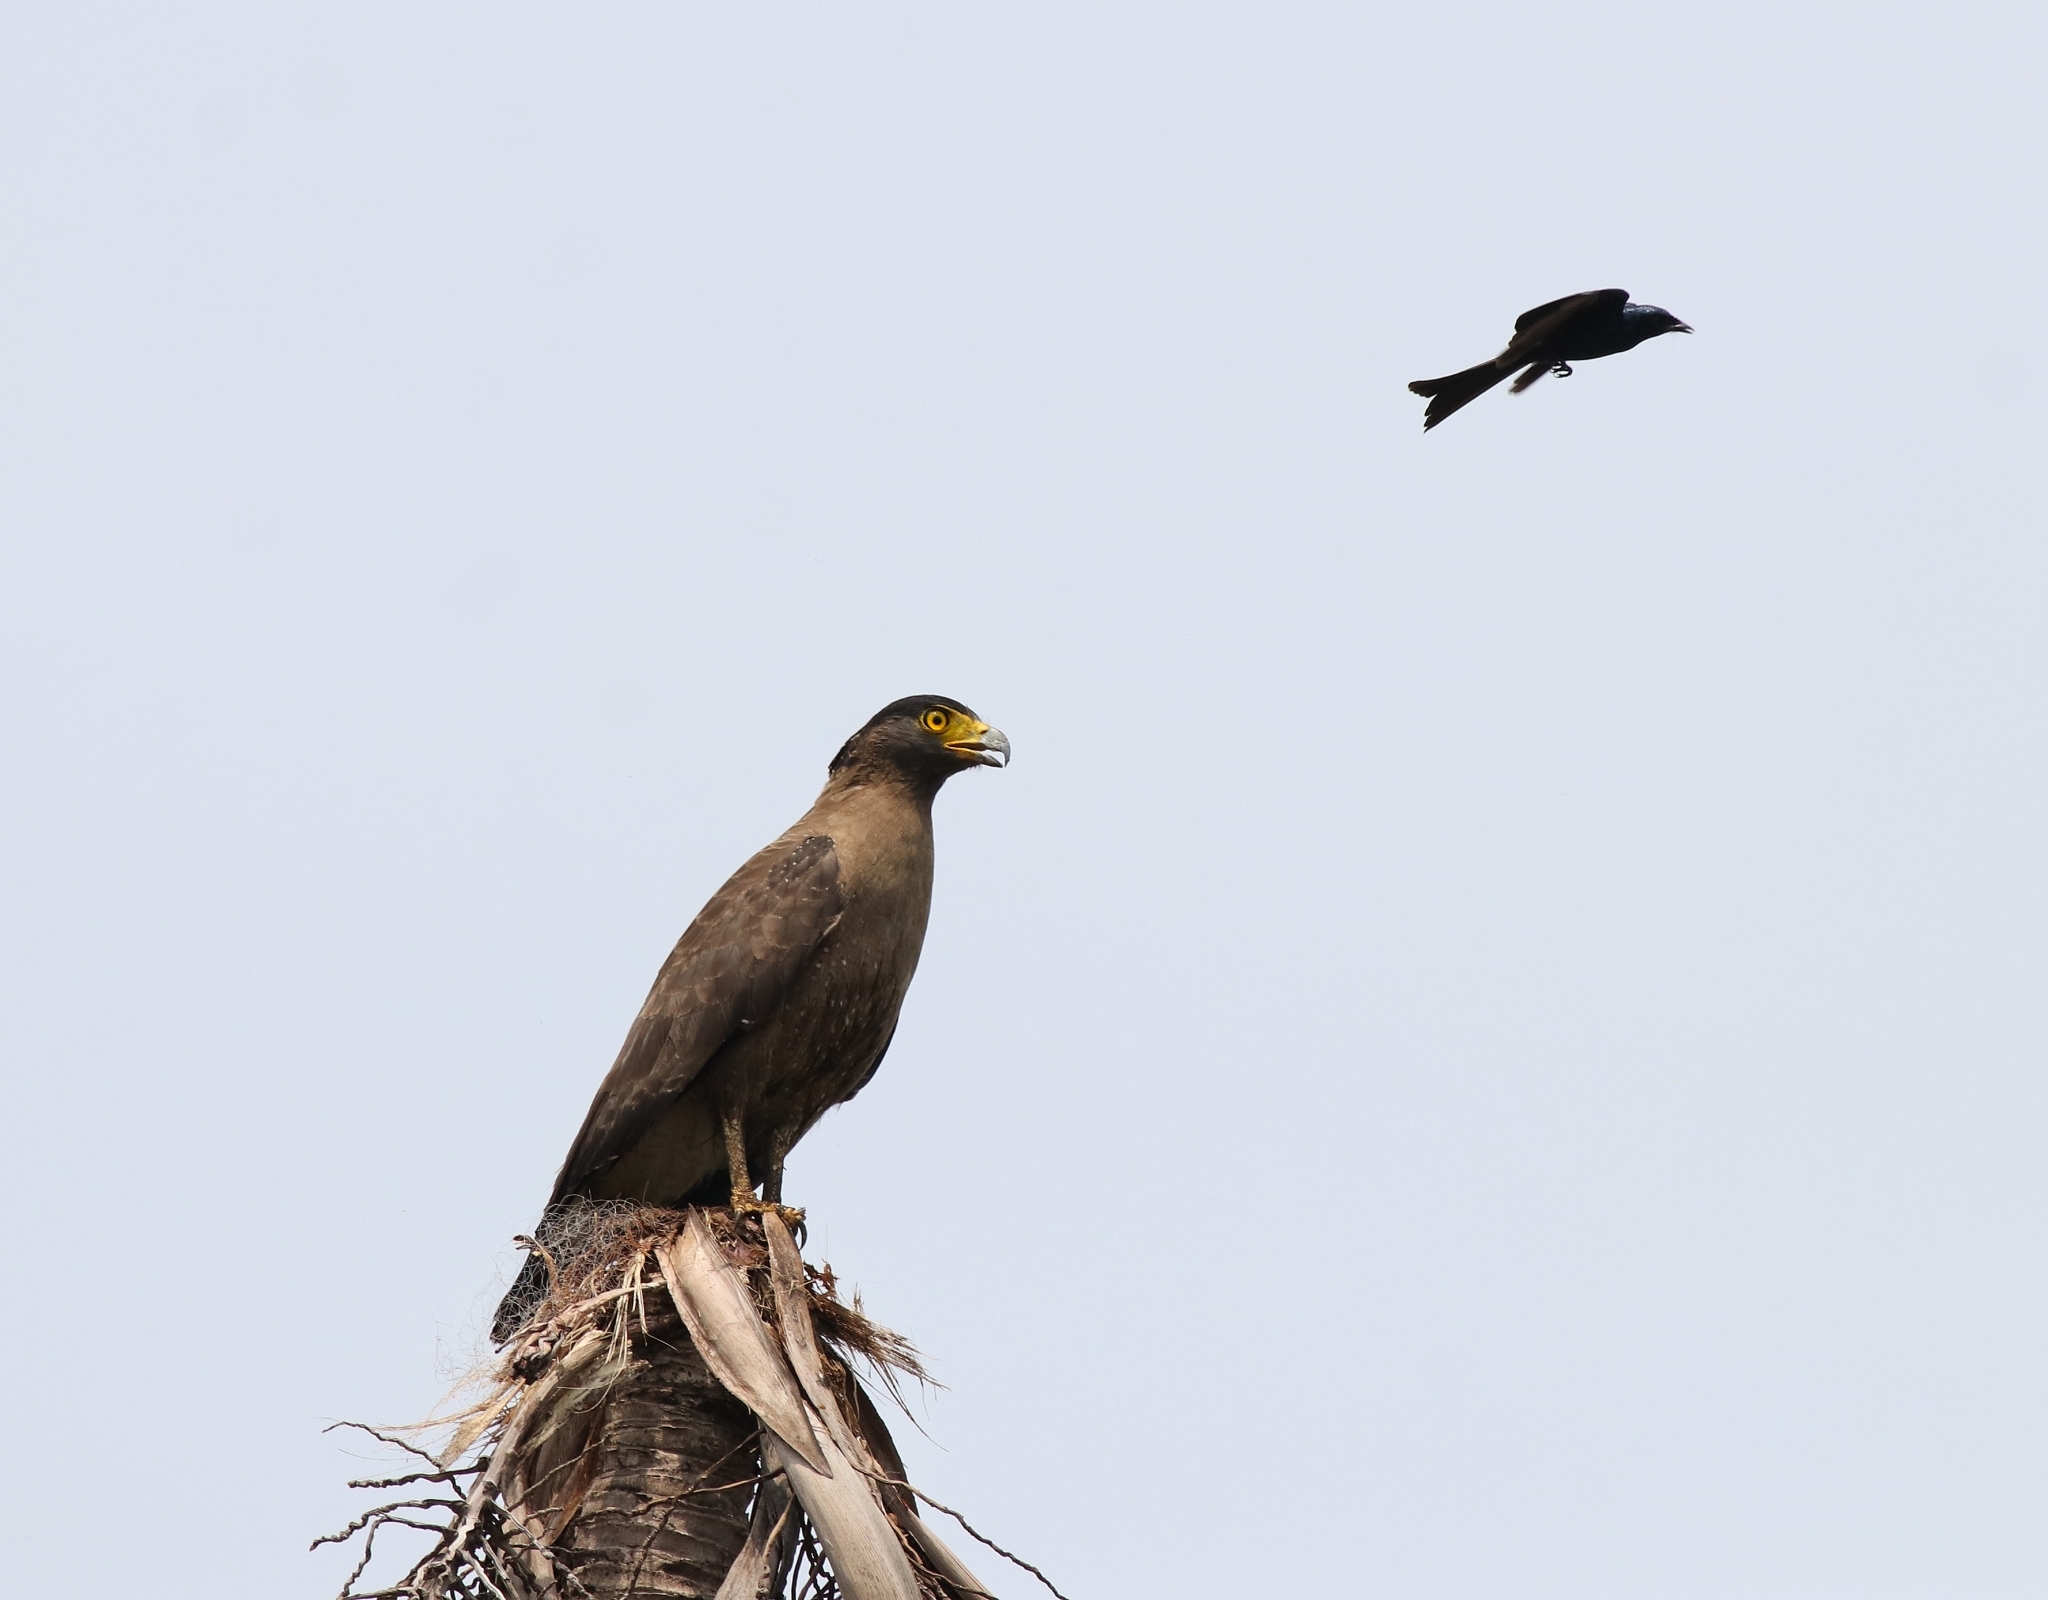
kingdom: Animalia
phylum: Chordata
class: Aves
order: Passeriformes
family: Dicruridae
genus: Dicrurus
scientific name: Dicrurus aeneus
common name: Bronzed drongo
